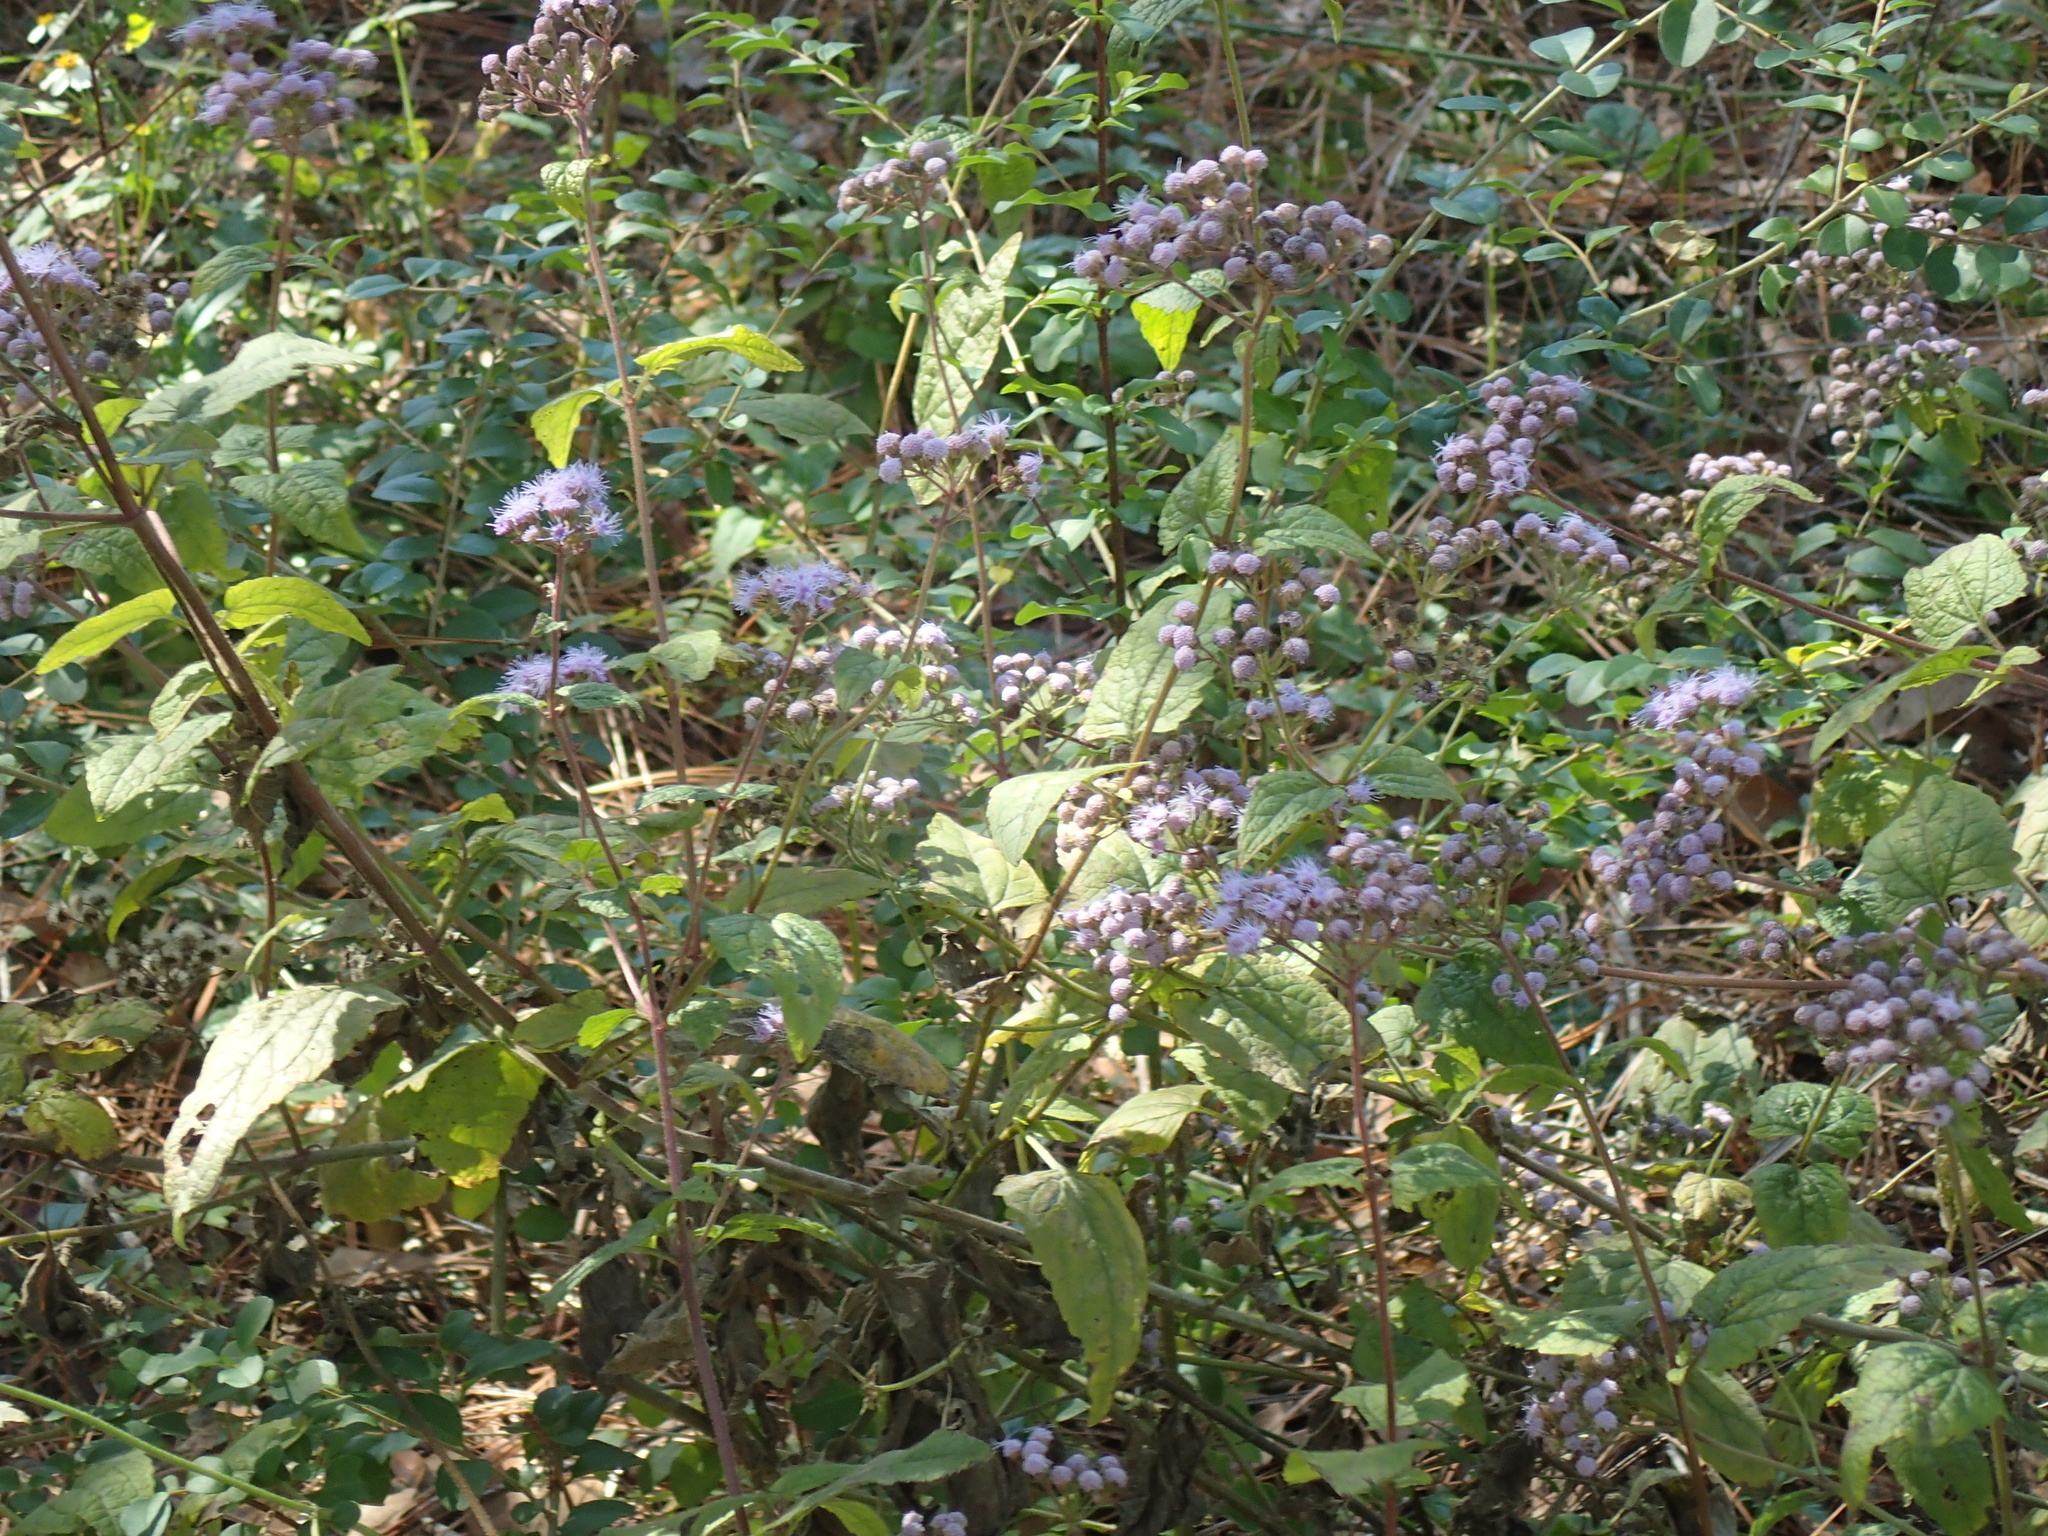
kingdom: Plantae
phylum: Tracheophyta
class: Magnoliopsida
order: Asterales
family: Asteraceae
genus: Conoclinium
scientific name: Conoclinium coelestinum
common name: Blue mistflower
